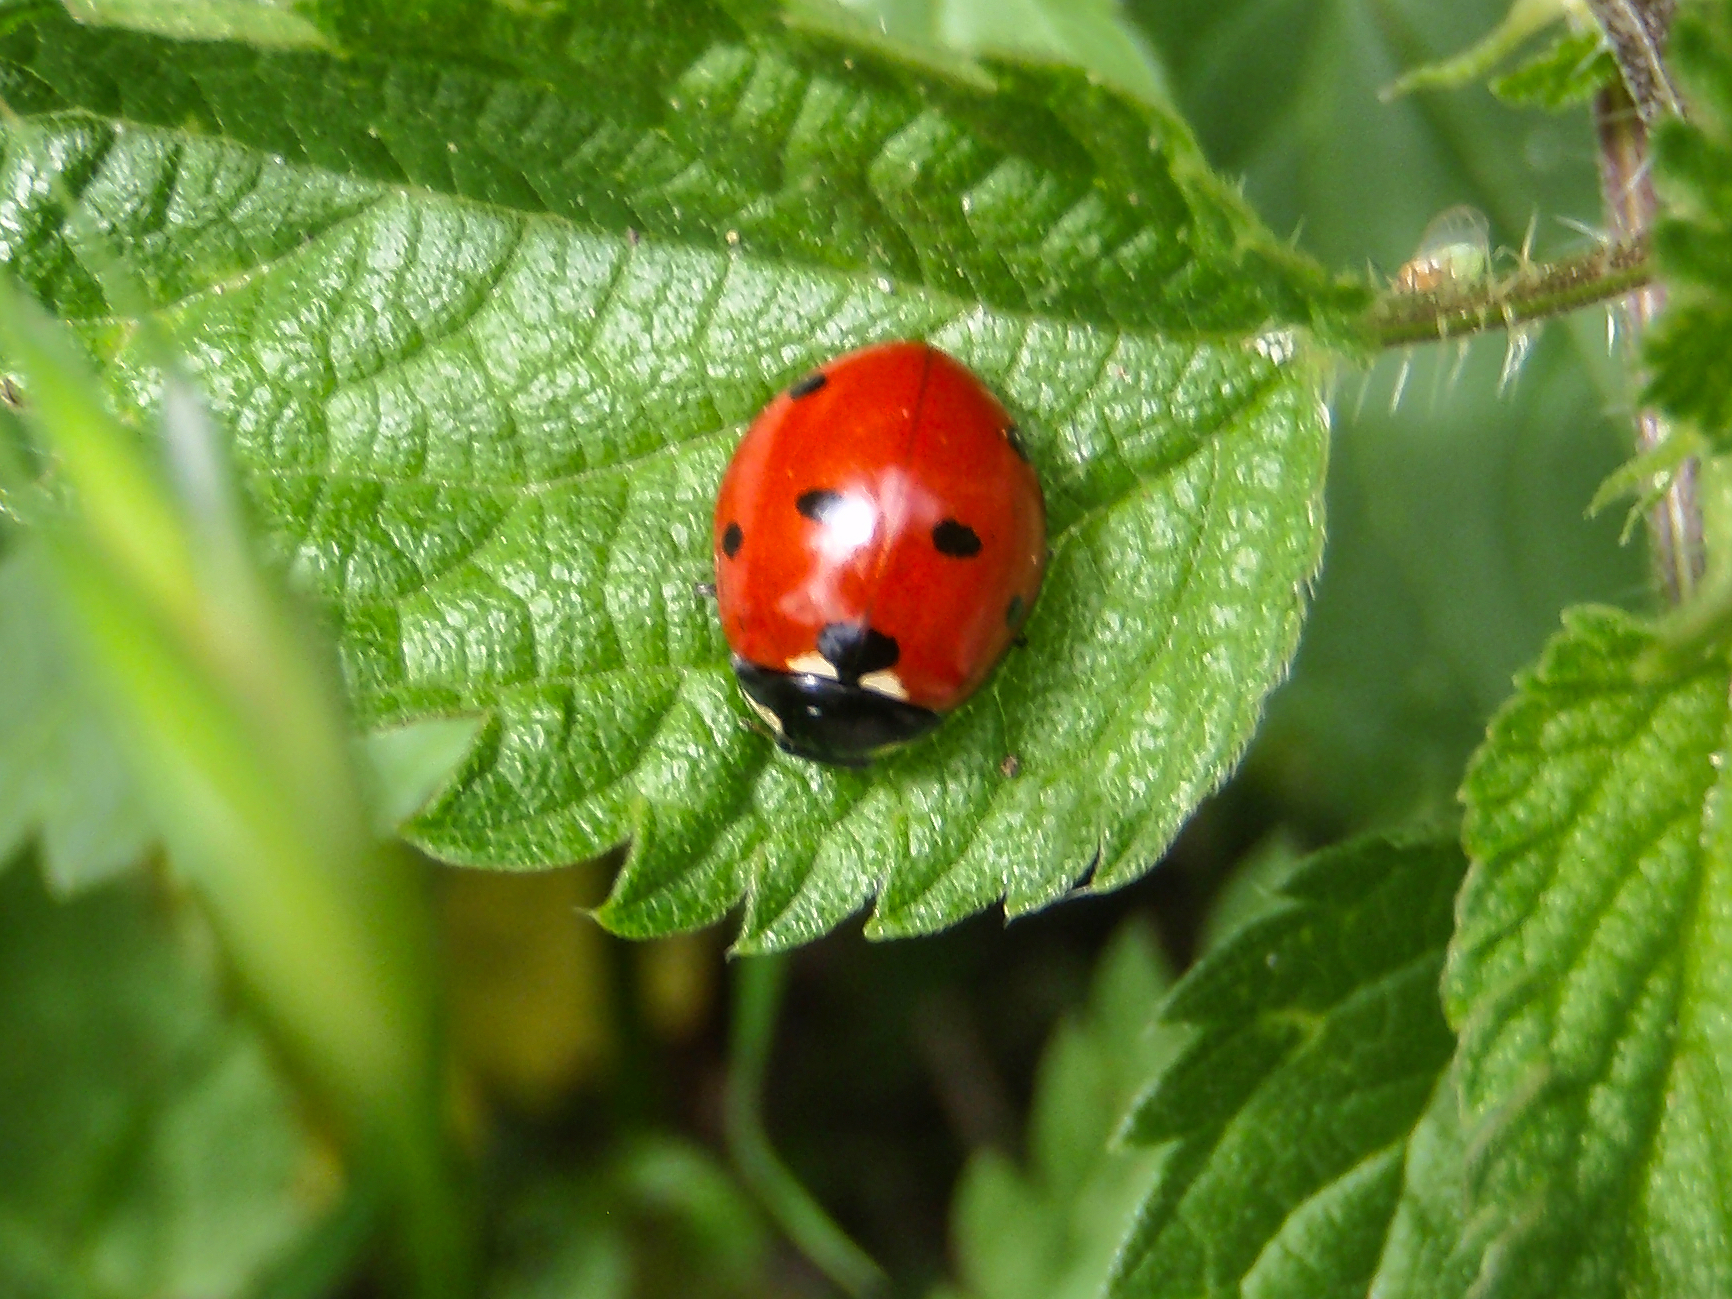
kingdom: Animalia
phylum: Arthropoda
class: Insecta
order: Coleoptera
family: Coccinellidae
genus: Coccinella
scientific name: Coccinella septempunctata
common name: Sevenspotted lady beetle
